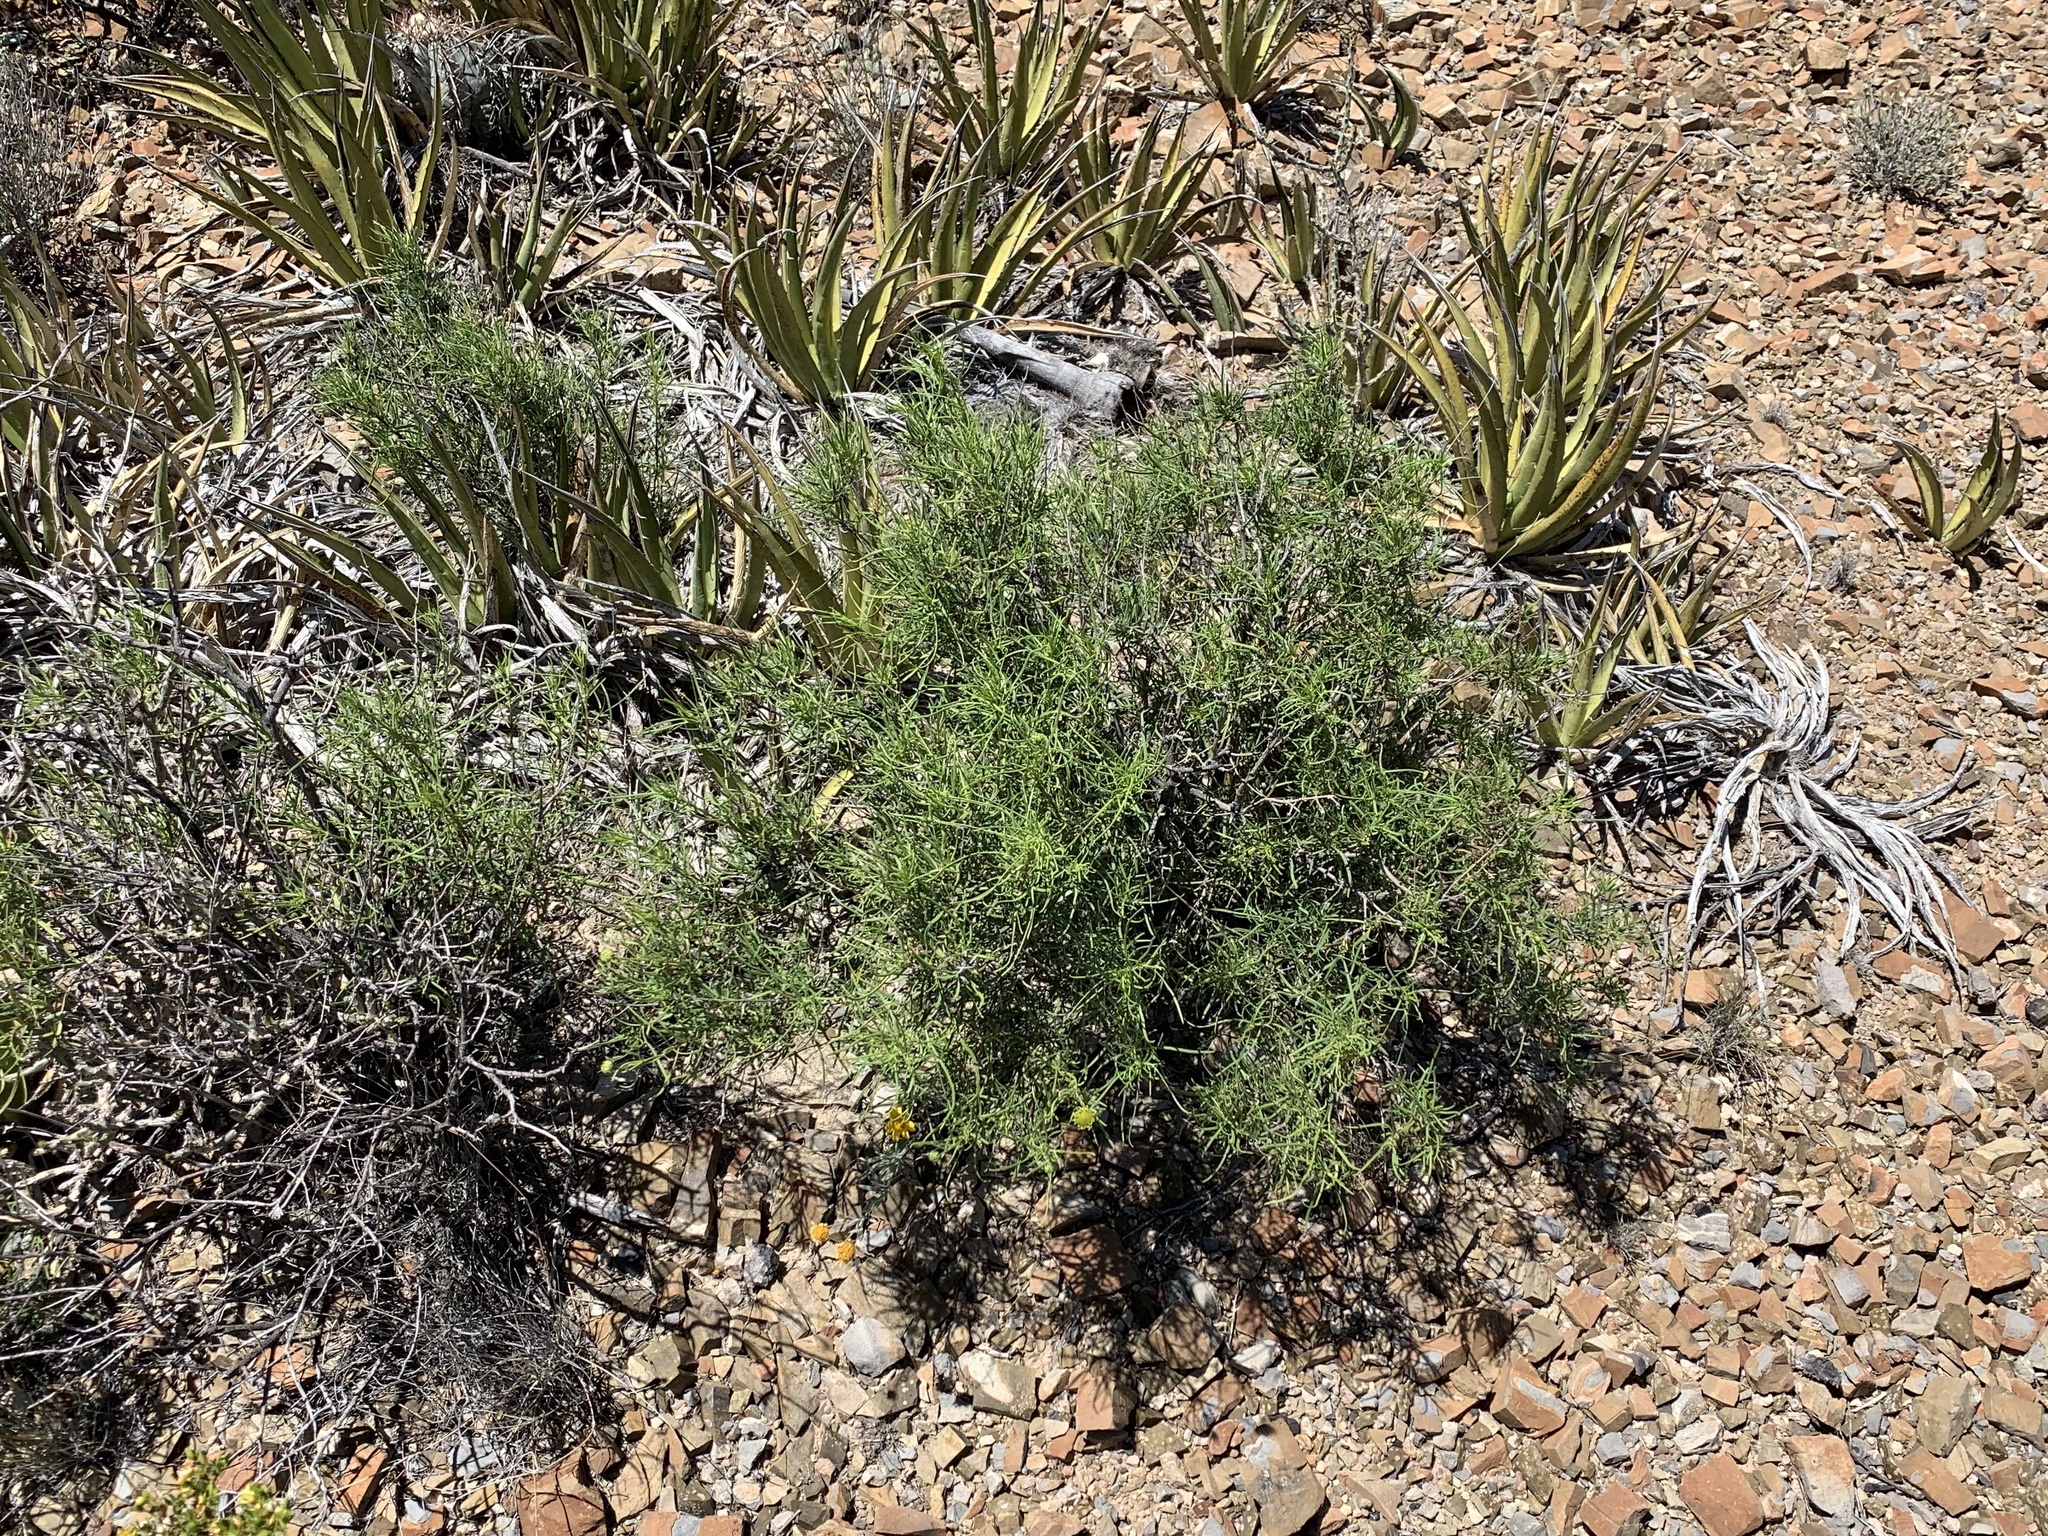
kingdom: Plantae
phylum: Tracheophyta
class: Magnoliopsida
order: Asterales
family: Asteraceae
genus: Sidneya
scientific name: Sidneya tenuifolia
